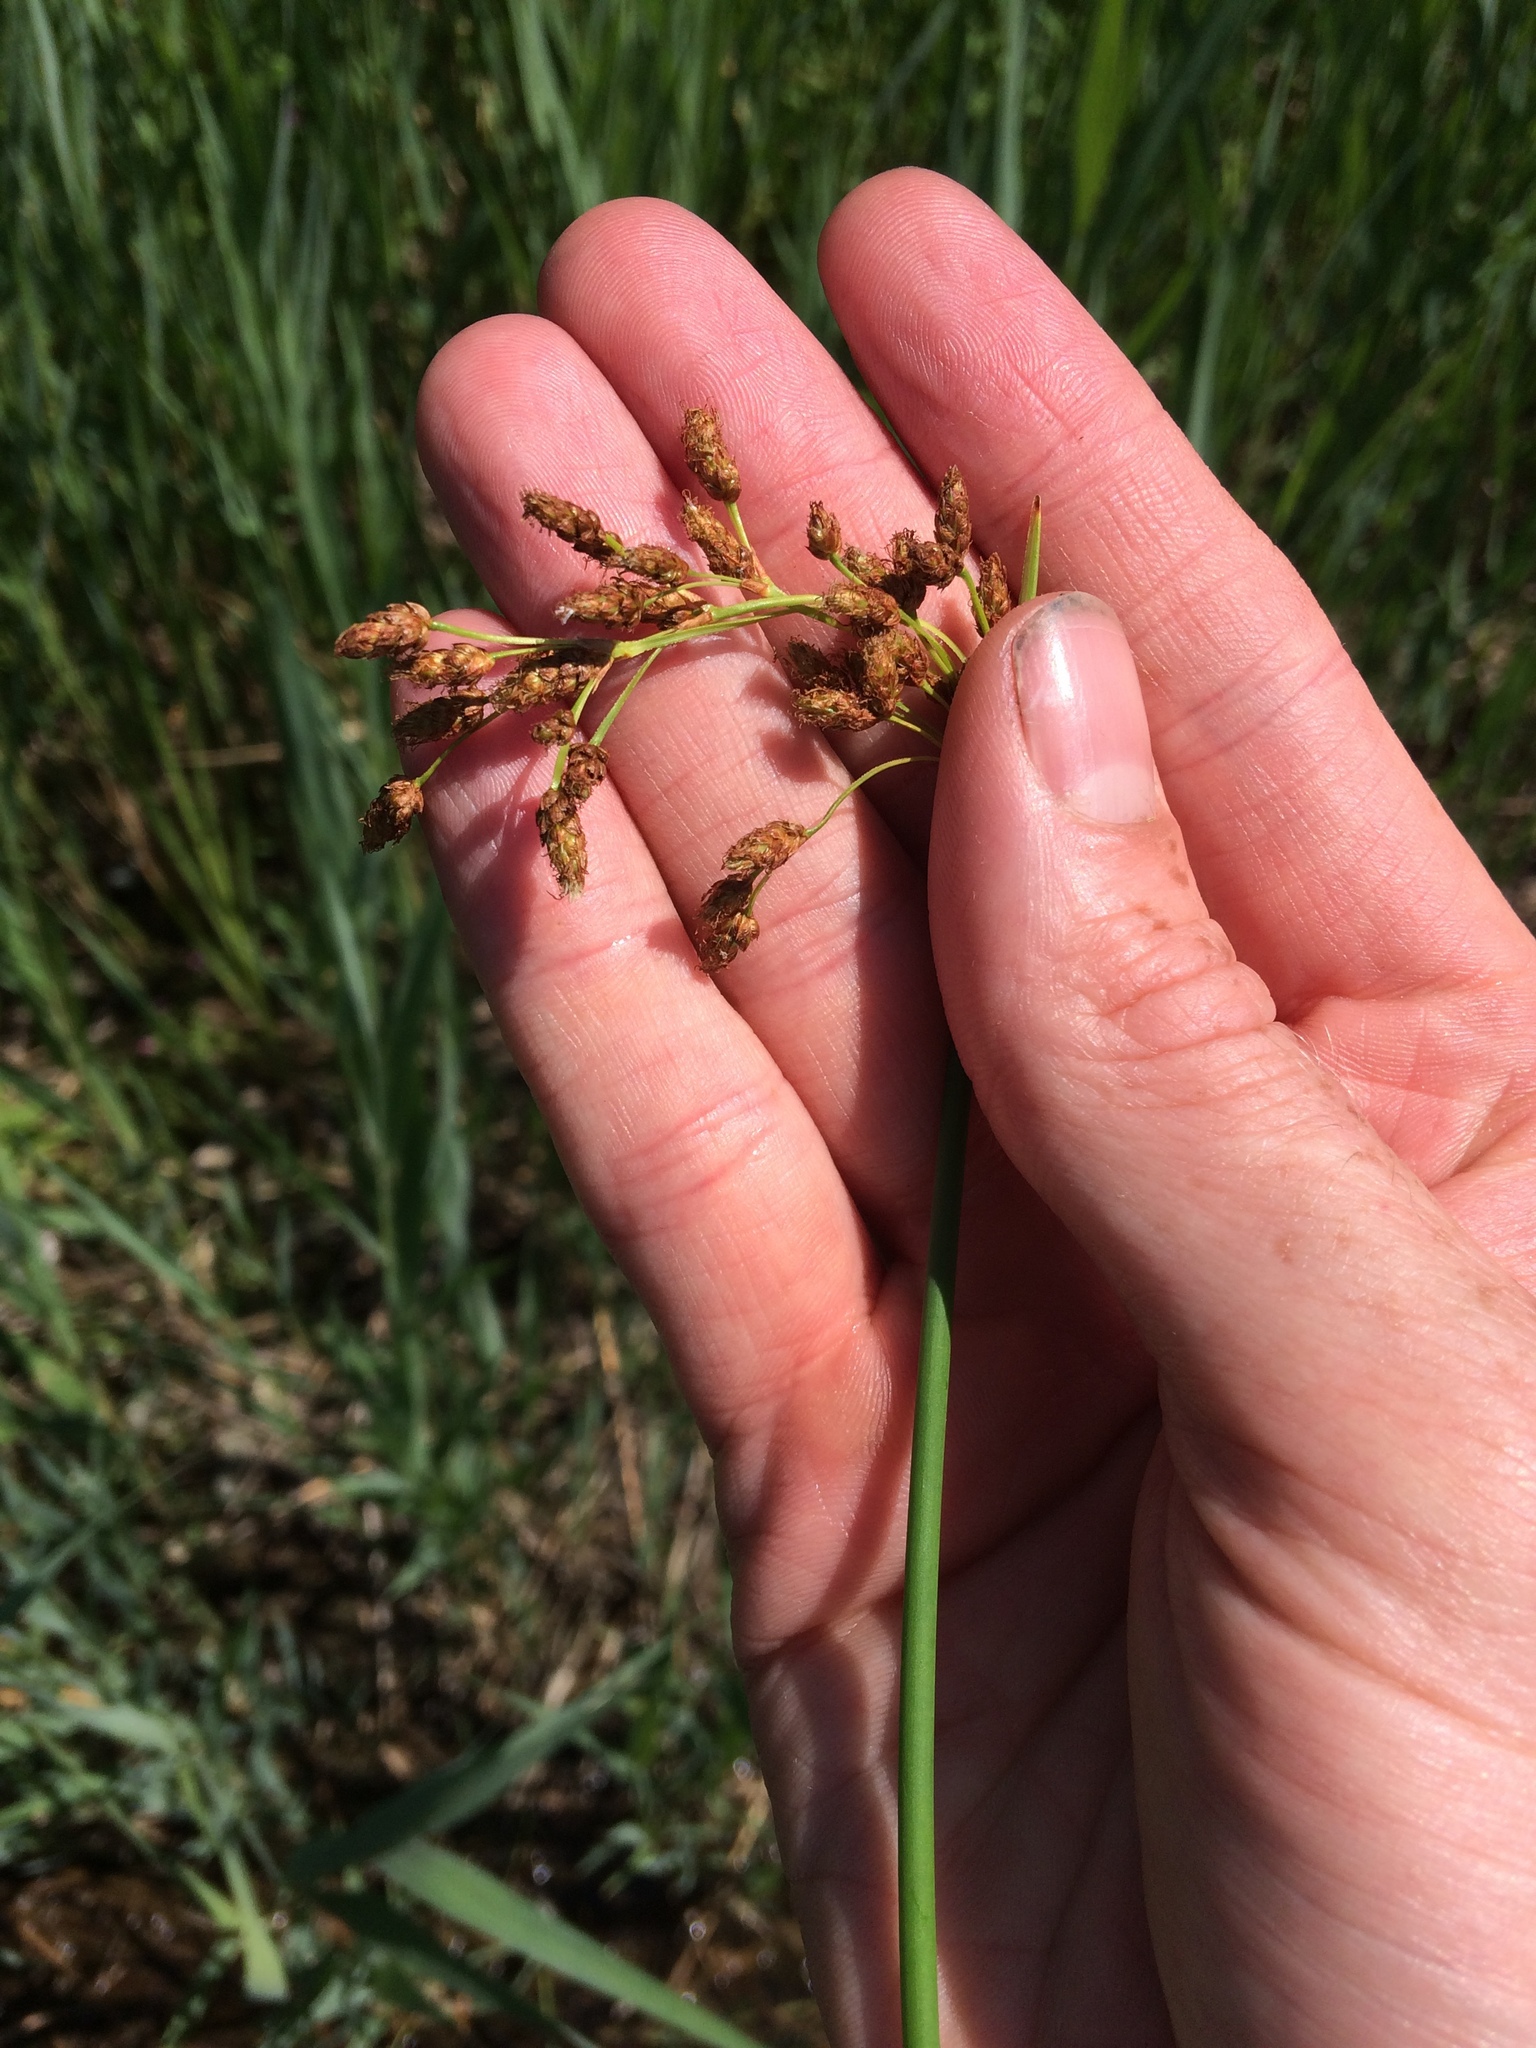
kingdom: Plantae
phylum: Tracheophyta
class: Liliopsida
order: Poales
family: Cyperaceae
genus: Schoenoplectus
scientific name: Schoenoplectus tabernaemontani
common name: Grey club-rush
